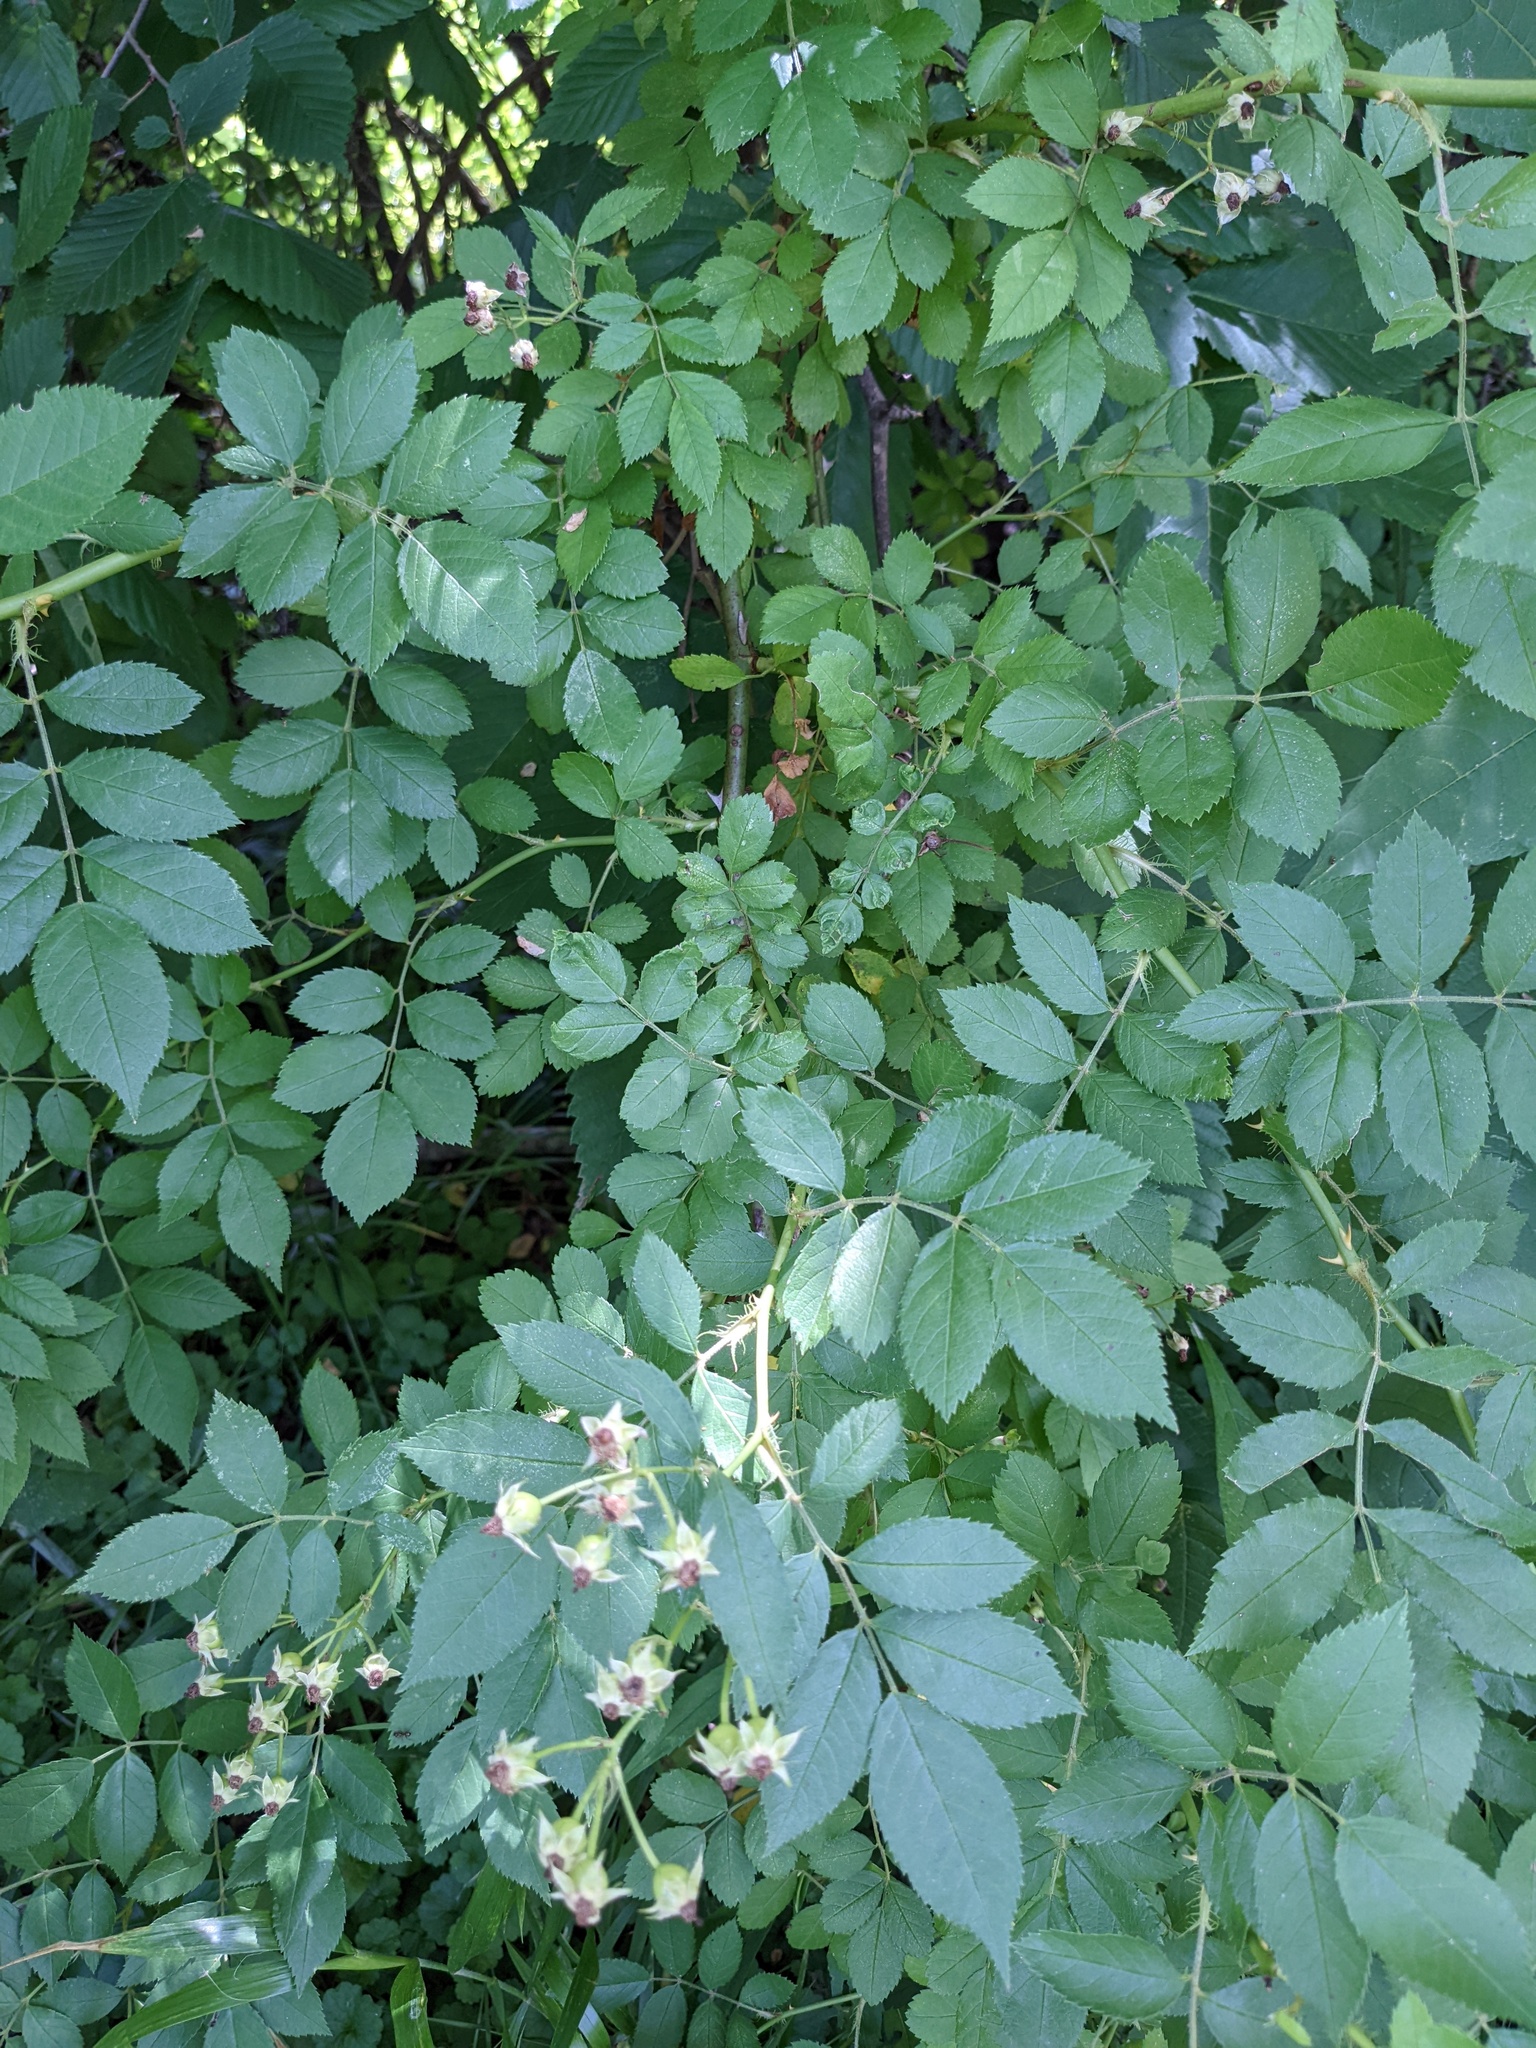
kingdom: Plantae
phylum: Tracheophyta
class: Magnoliopsida
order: Rosales
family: Rosaceae
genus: Rosa
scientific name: Rosa multiflora
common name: Multiflora rose
